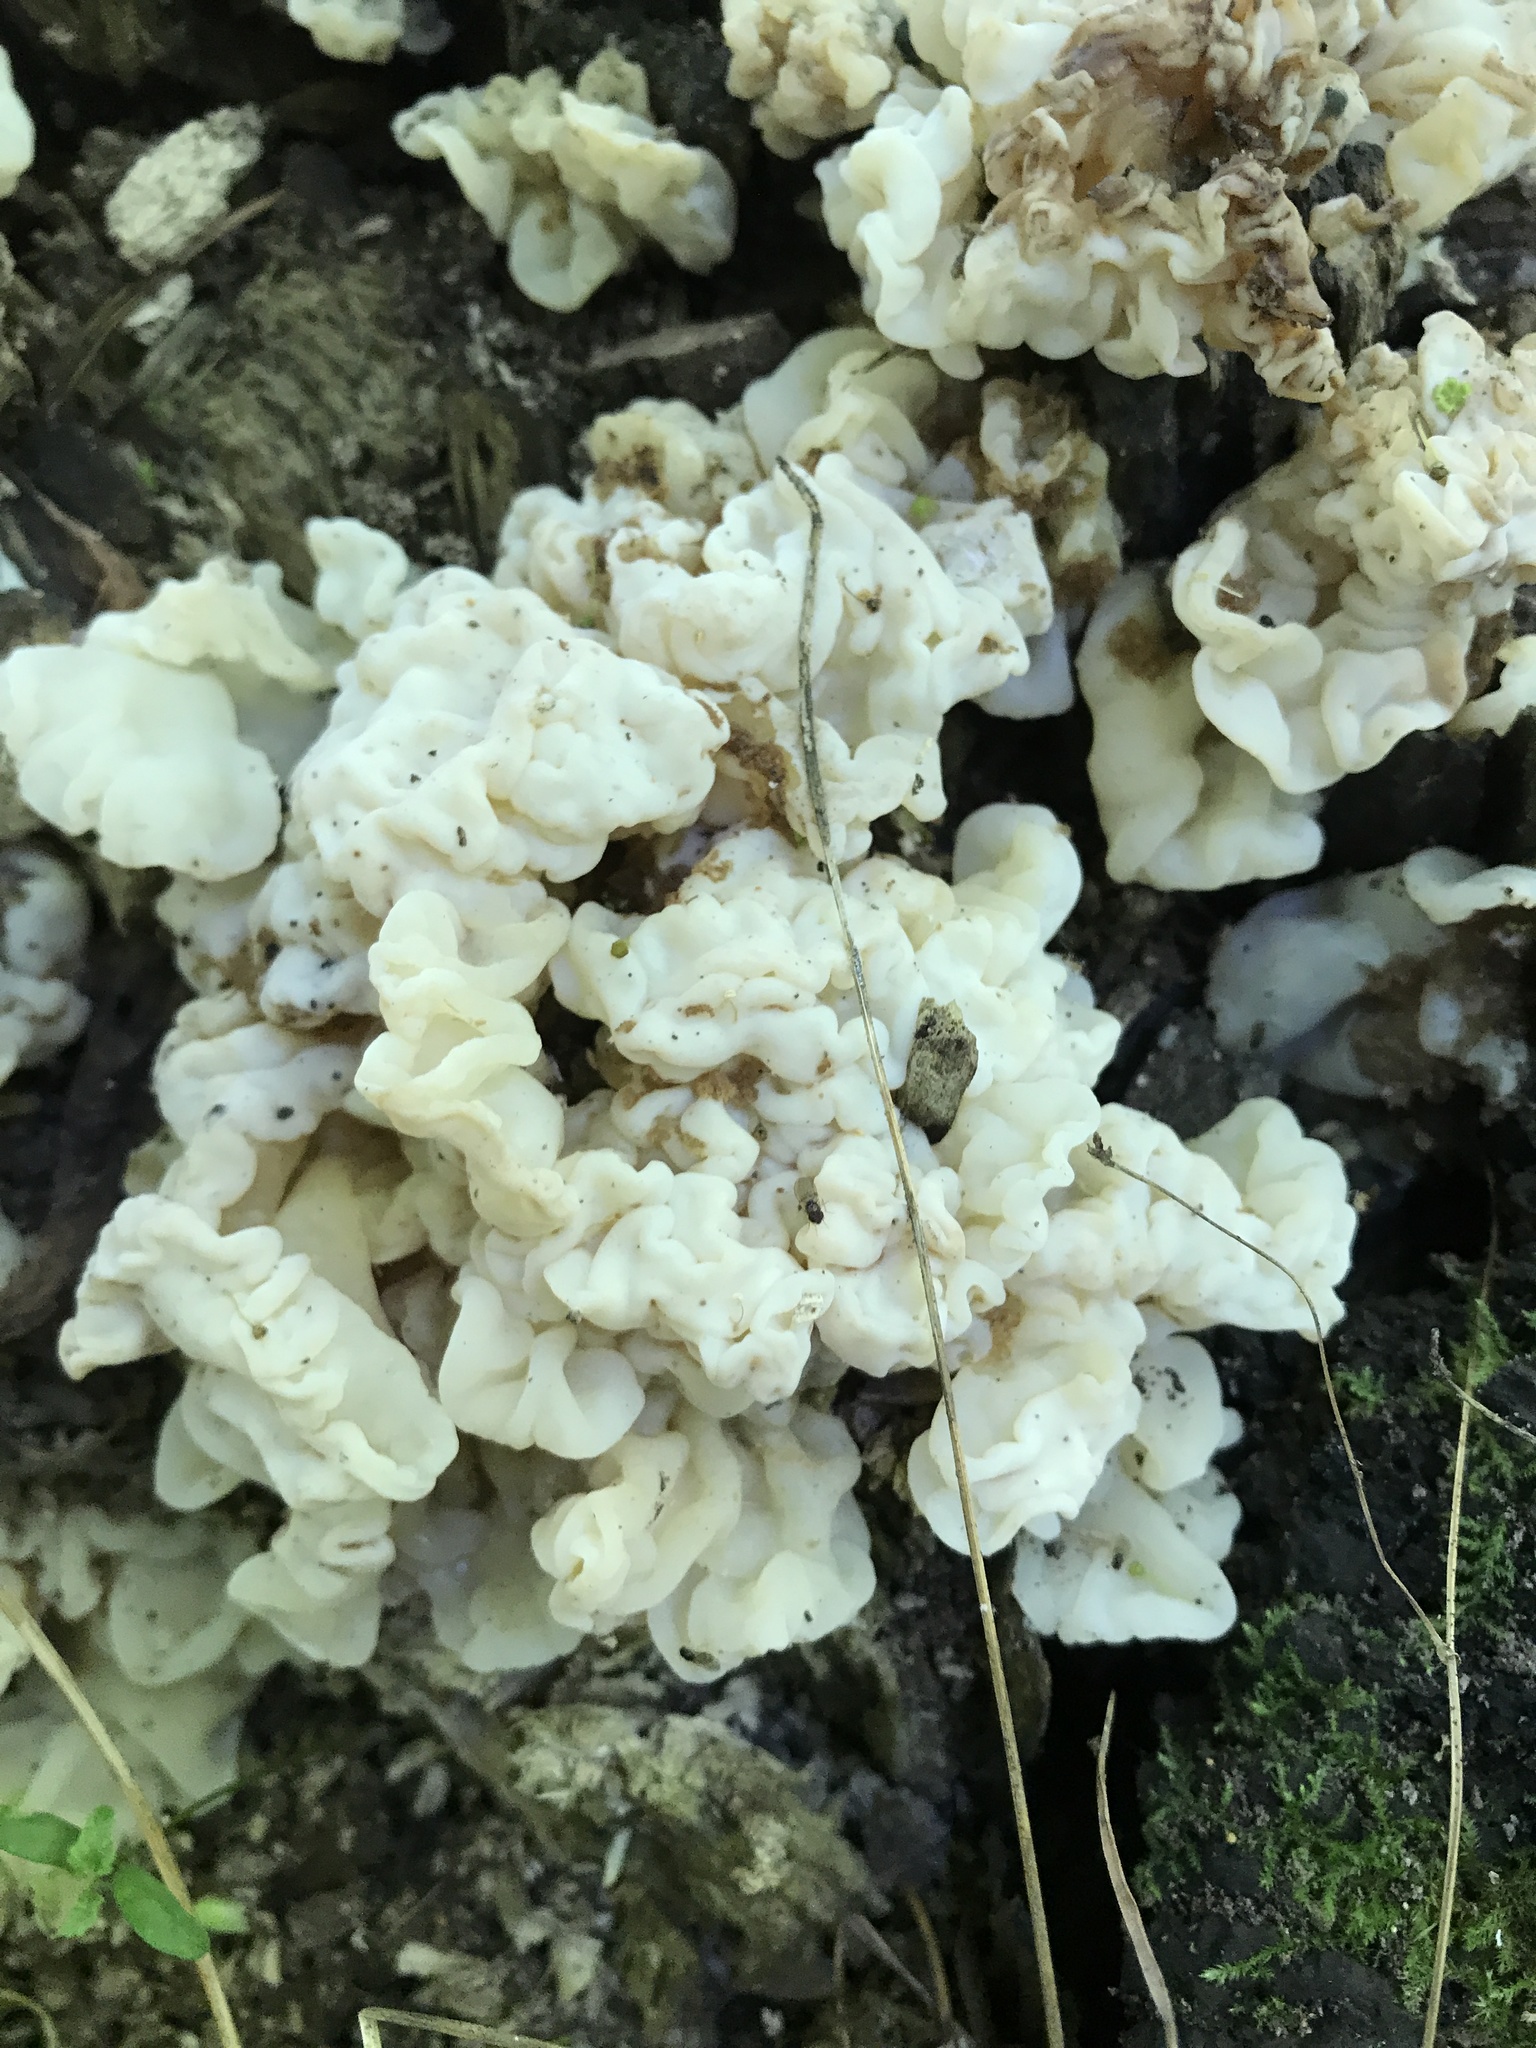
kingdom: Fungi
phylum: Basidiomycota
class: Agaricomycetes
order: Auriculariales
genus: Ductifera
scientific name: Ductifera pululahuana
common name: White jelly fungus
